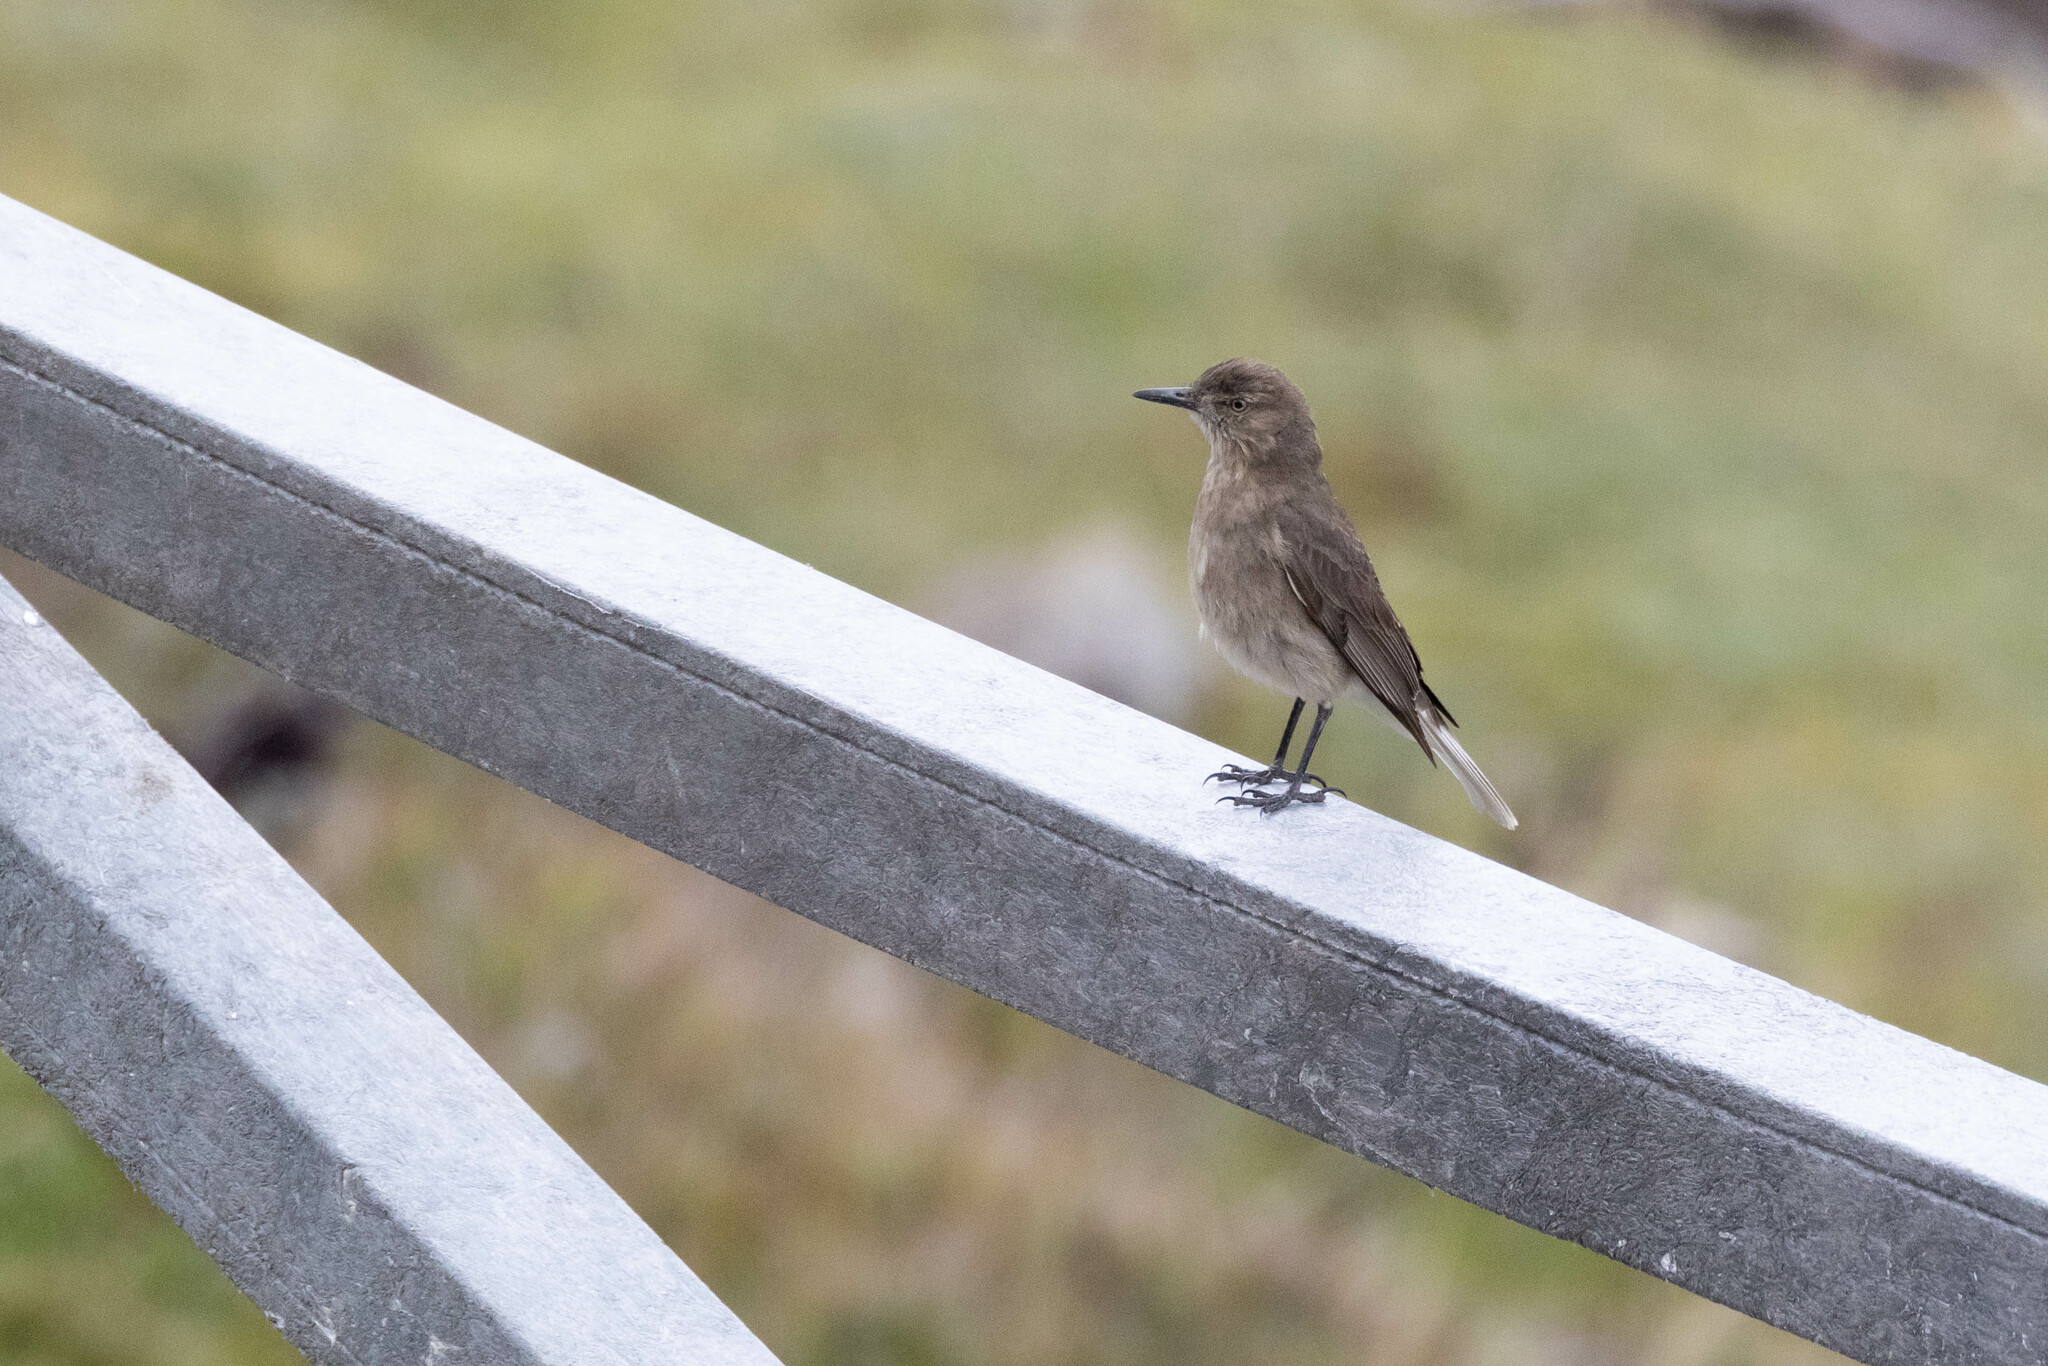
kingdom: Animalia
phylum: Chordata
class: Aves
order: Passeriformes
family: Tyrannidae
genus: Agriornis
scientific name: Agriornis montanus
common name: Black-billed shrike-tyrant
